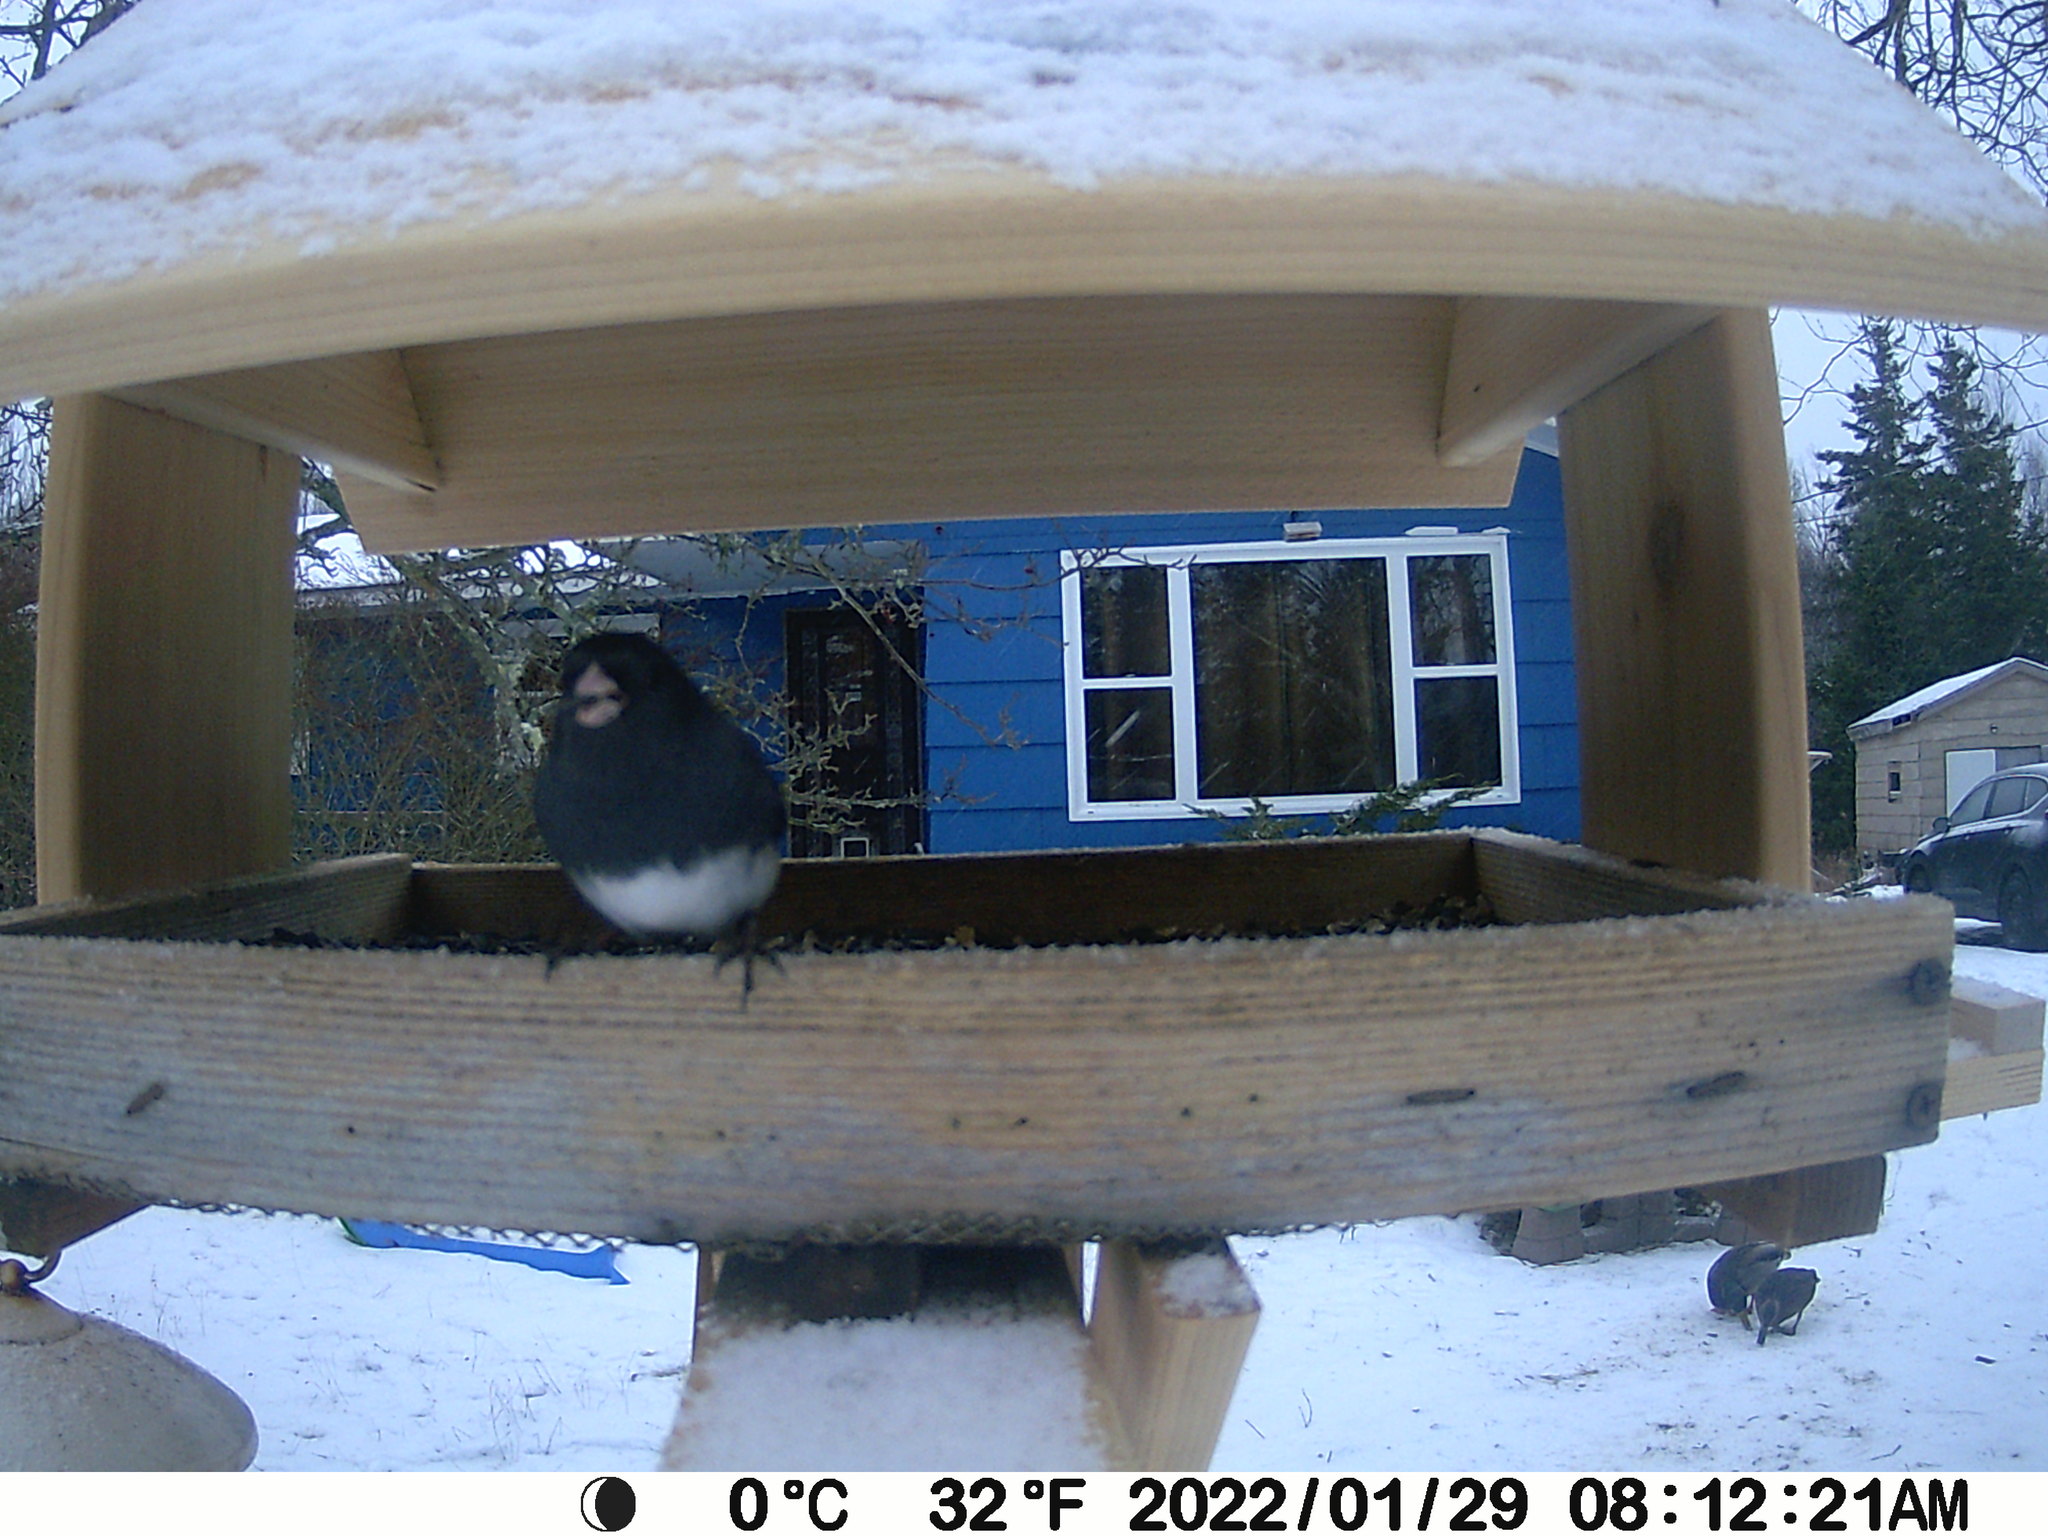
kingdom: Animalia
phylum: Chordata
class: Aves
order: Passeriformes
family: Passerellidae
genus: Junco
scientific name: Junco hyemalis
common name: Dark-eyed junco
